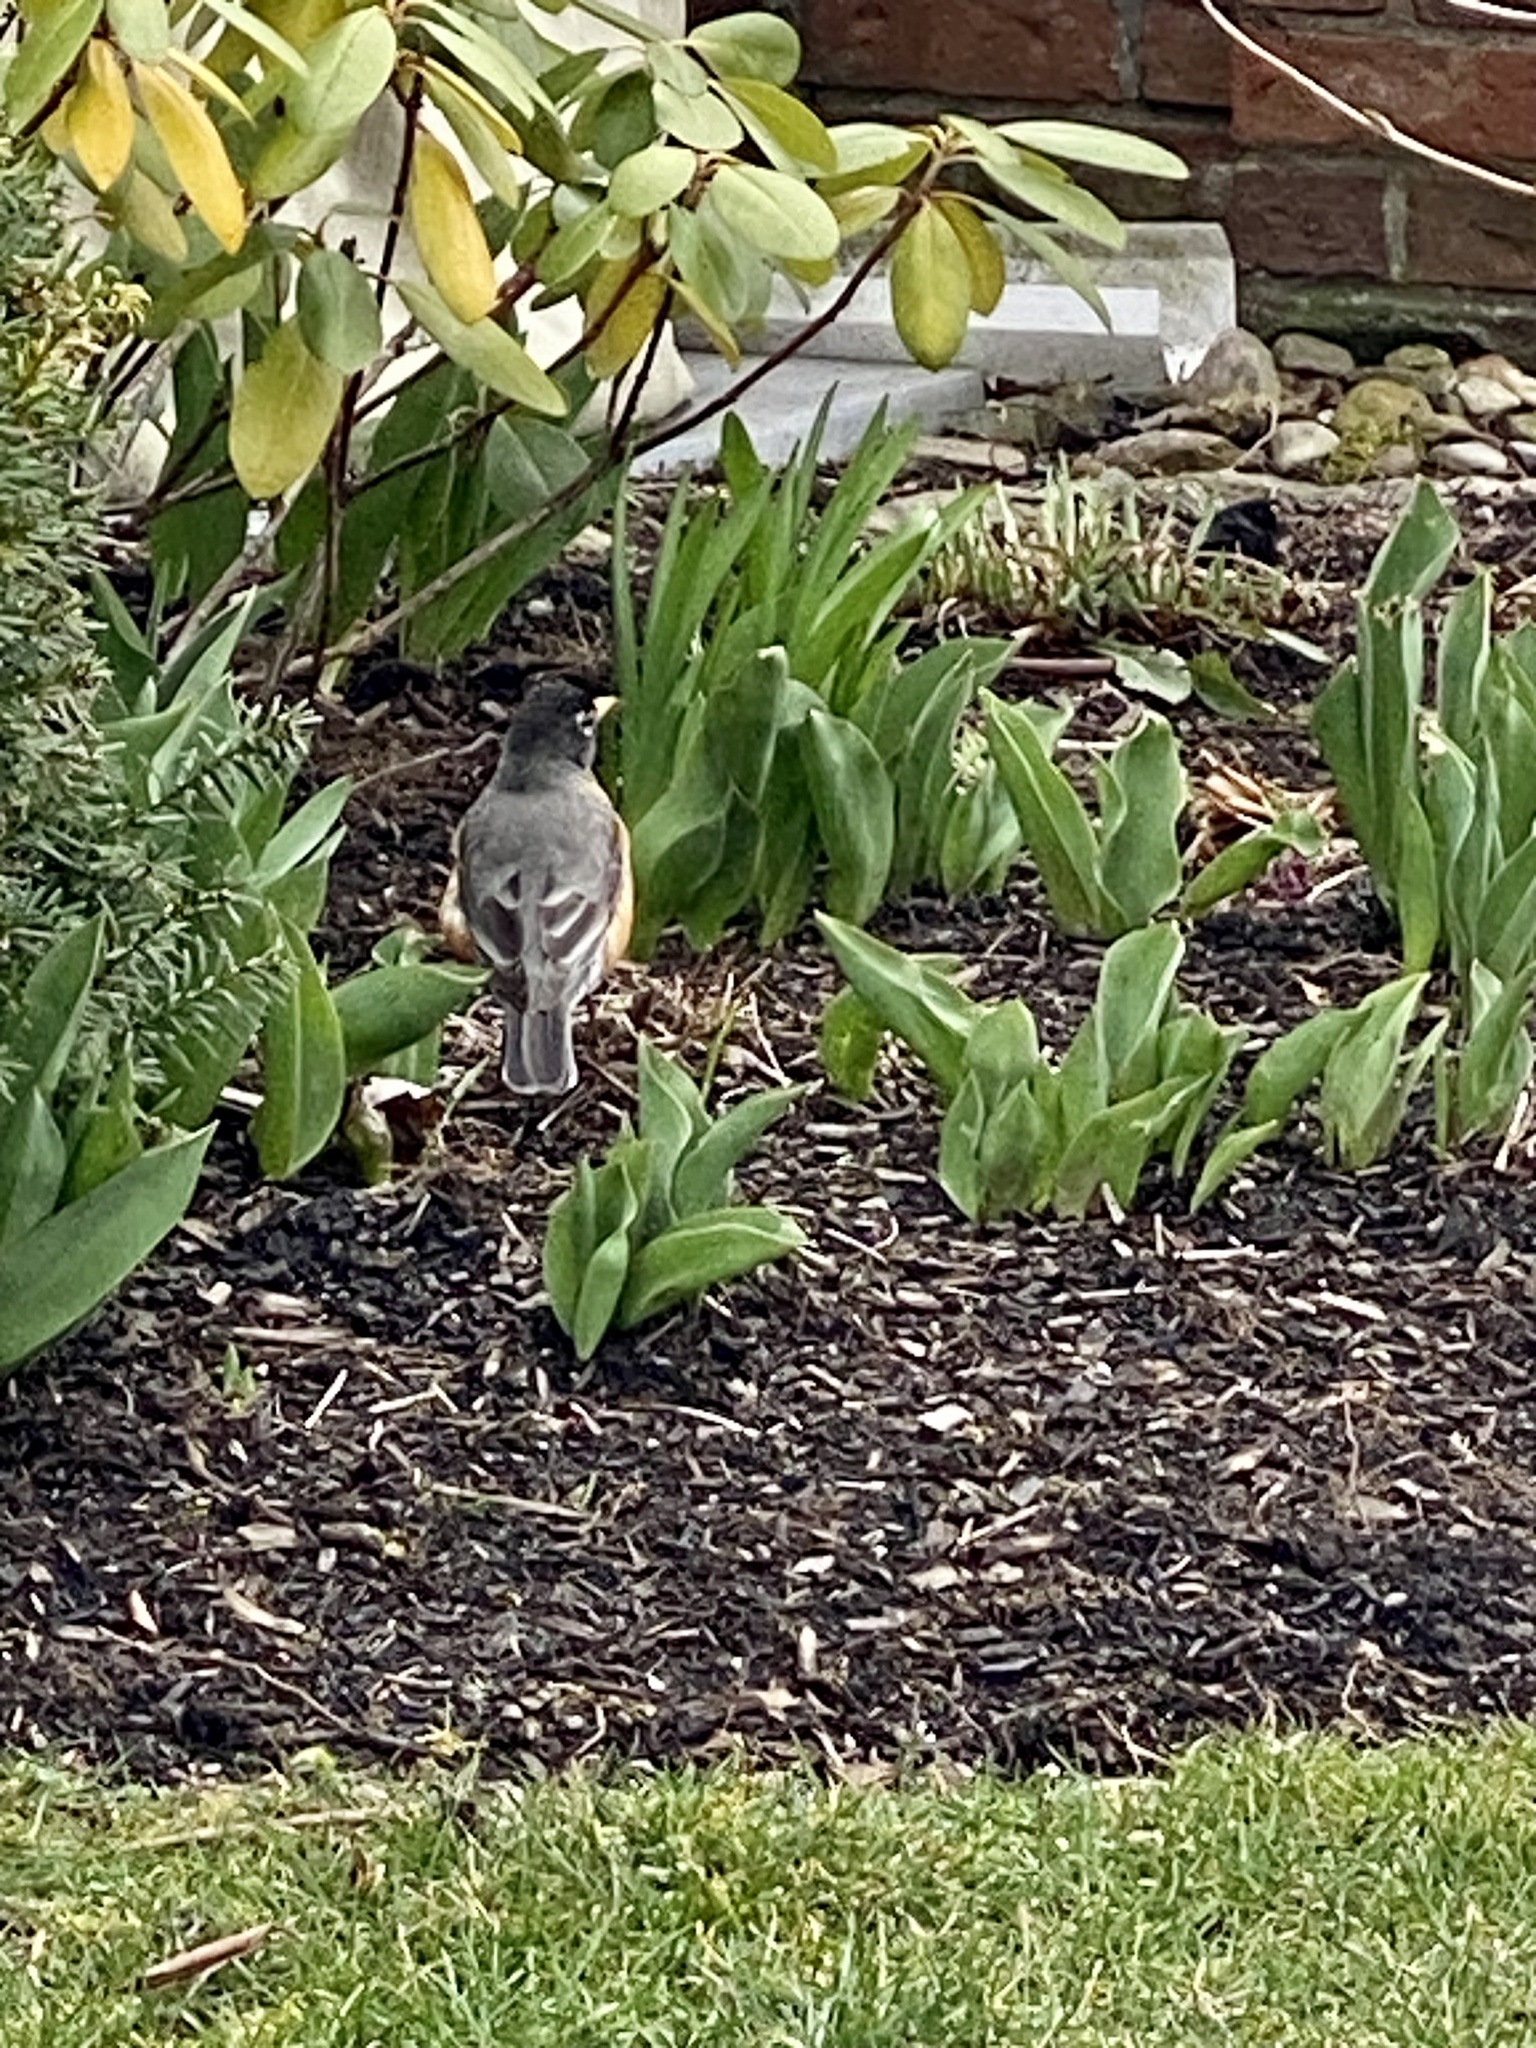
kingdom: Animalia
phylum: Chordata
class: Aves
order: Passeriformes
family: Turdidae
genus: Turdus
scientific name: Turdus migratorius
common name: American robin
